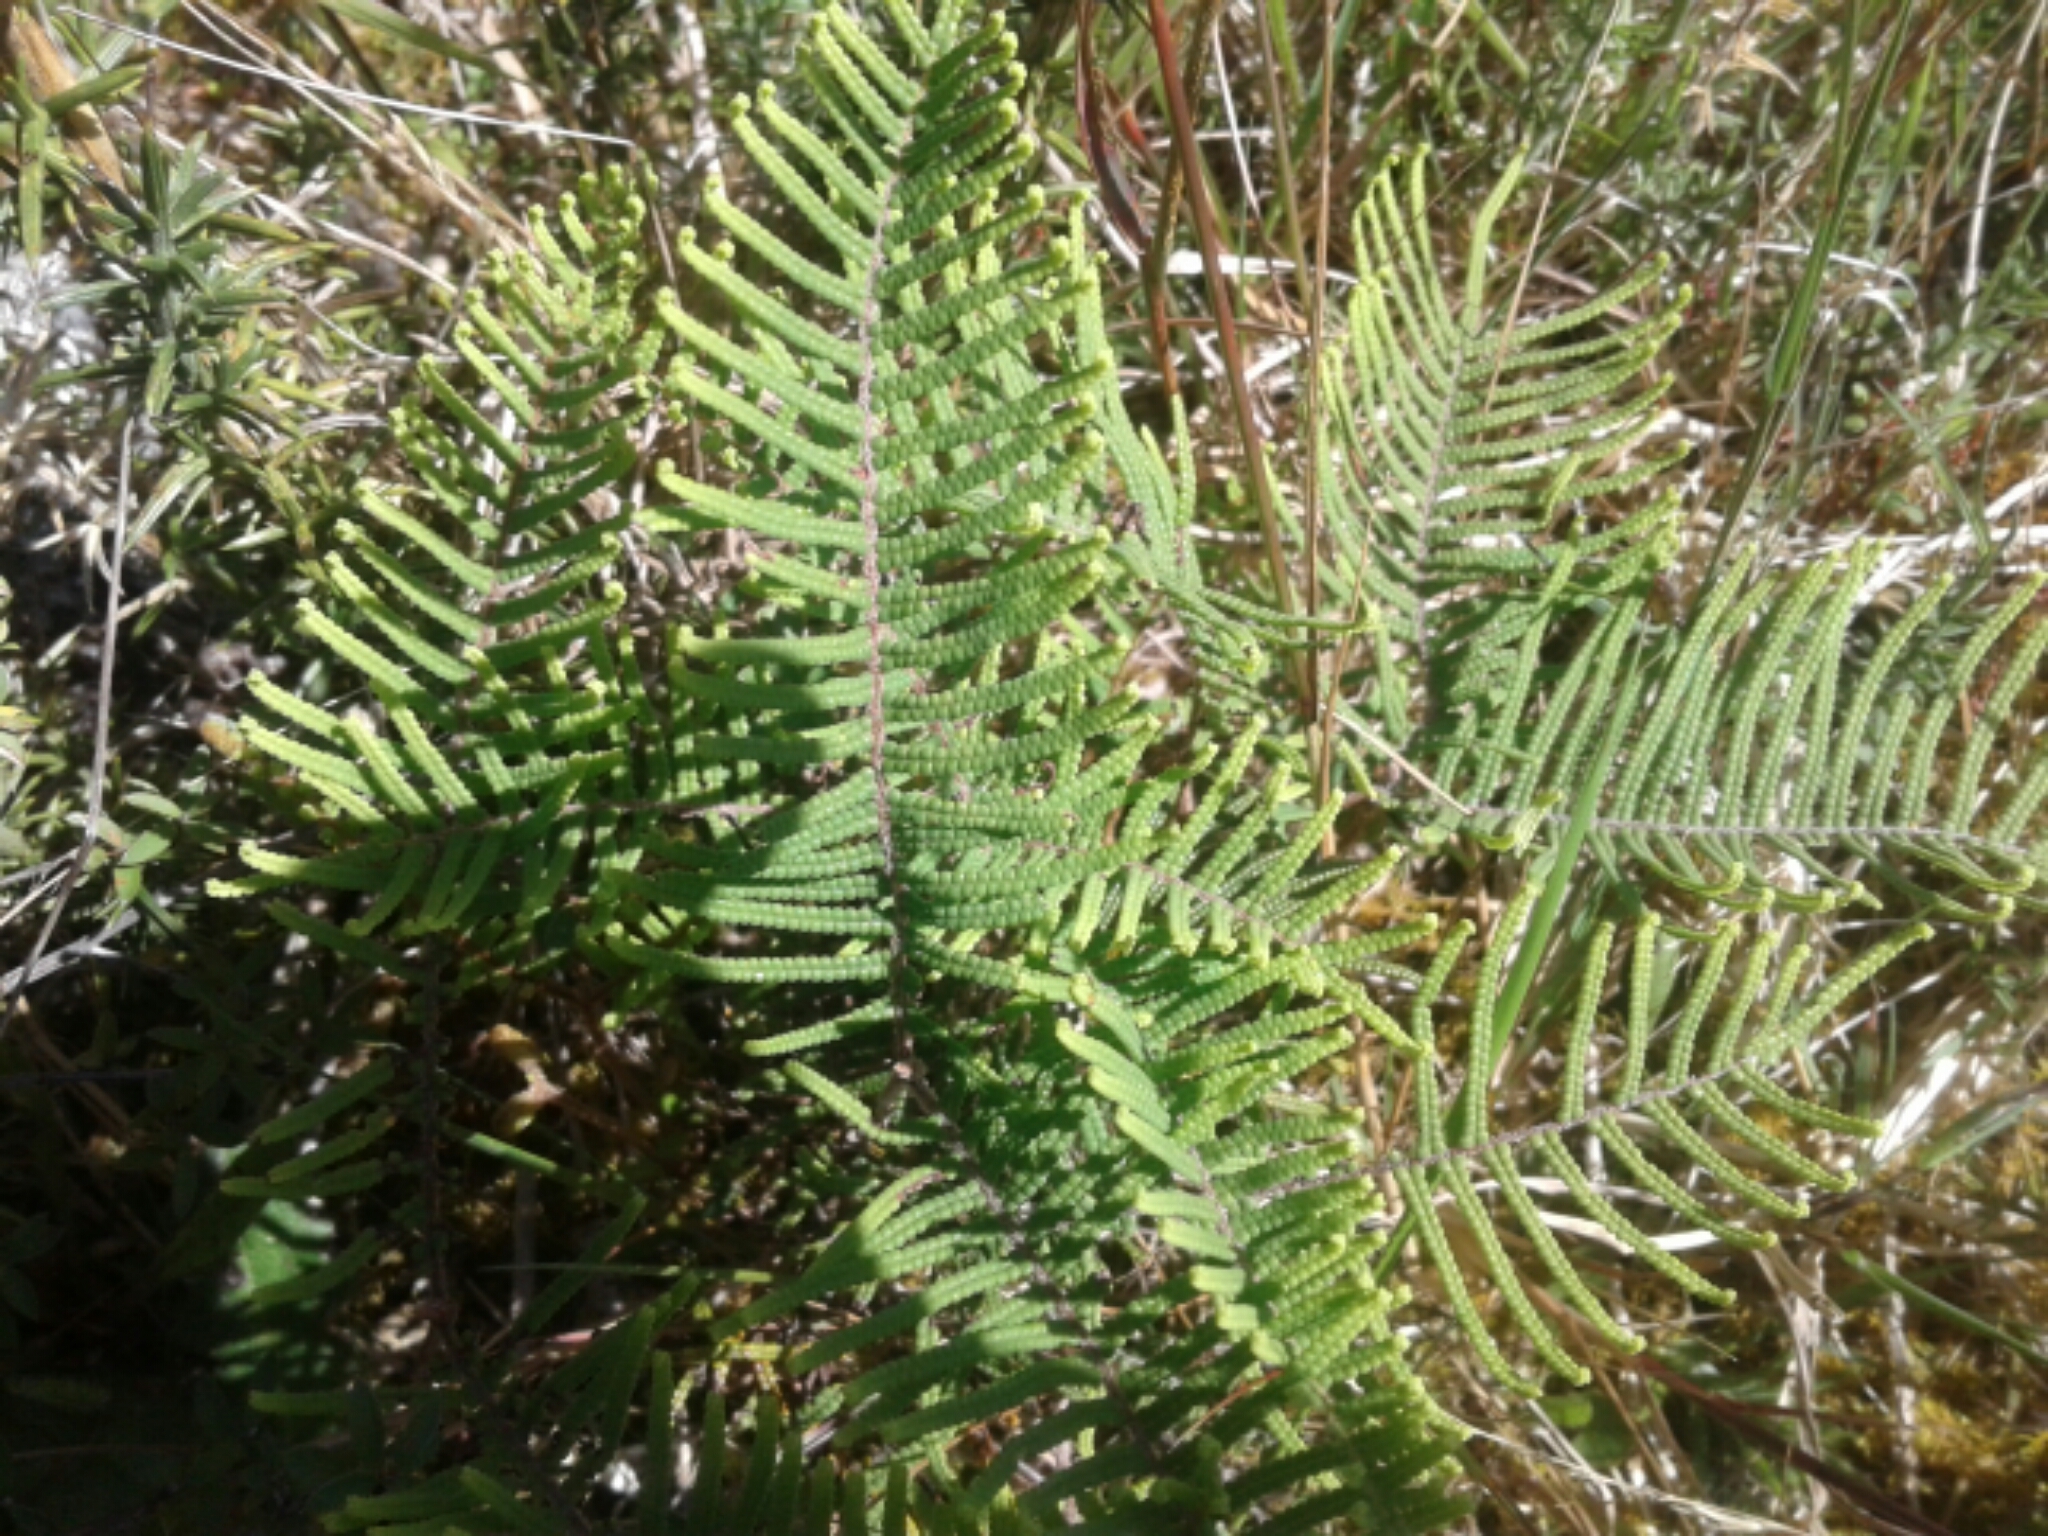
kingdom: Plantae
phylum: Tracheophyta
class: Polypodiopsida
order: Gleicheniales
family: Gleicheniaceae
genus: Gleichenia
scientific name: Gleichenia dicarpa
